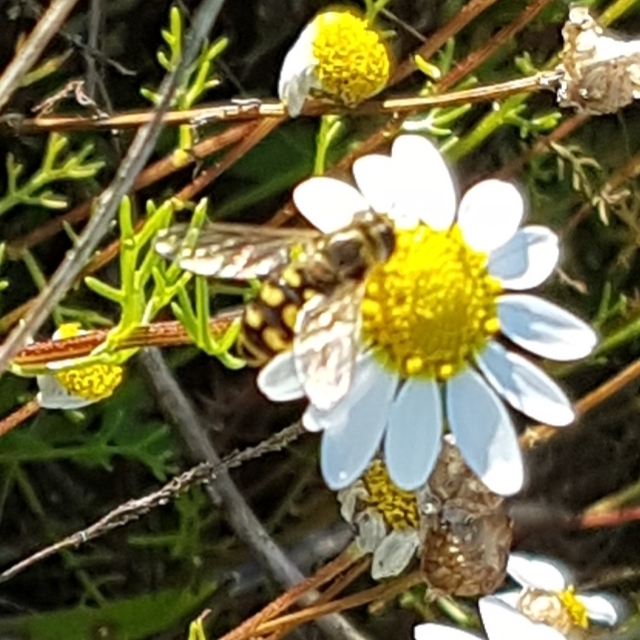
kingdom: Animalia
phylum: Arthropoda
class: Insecta
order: Diptera
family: Syrphidae
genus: Eupeodes
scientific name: Eupeodes corollae
